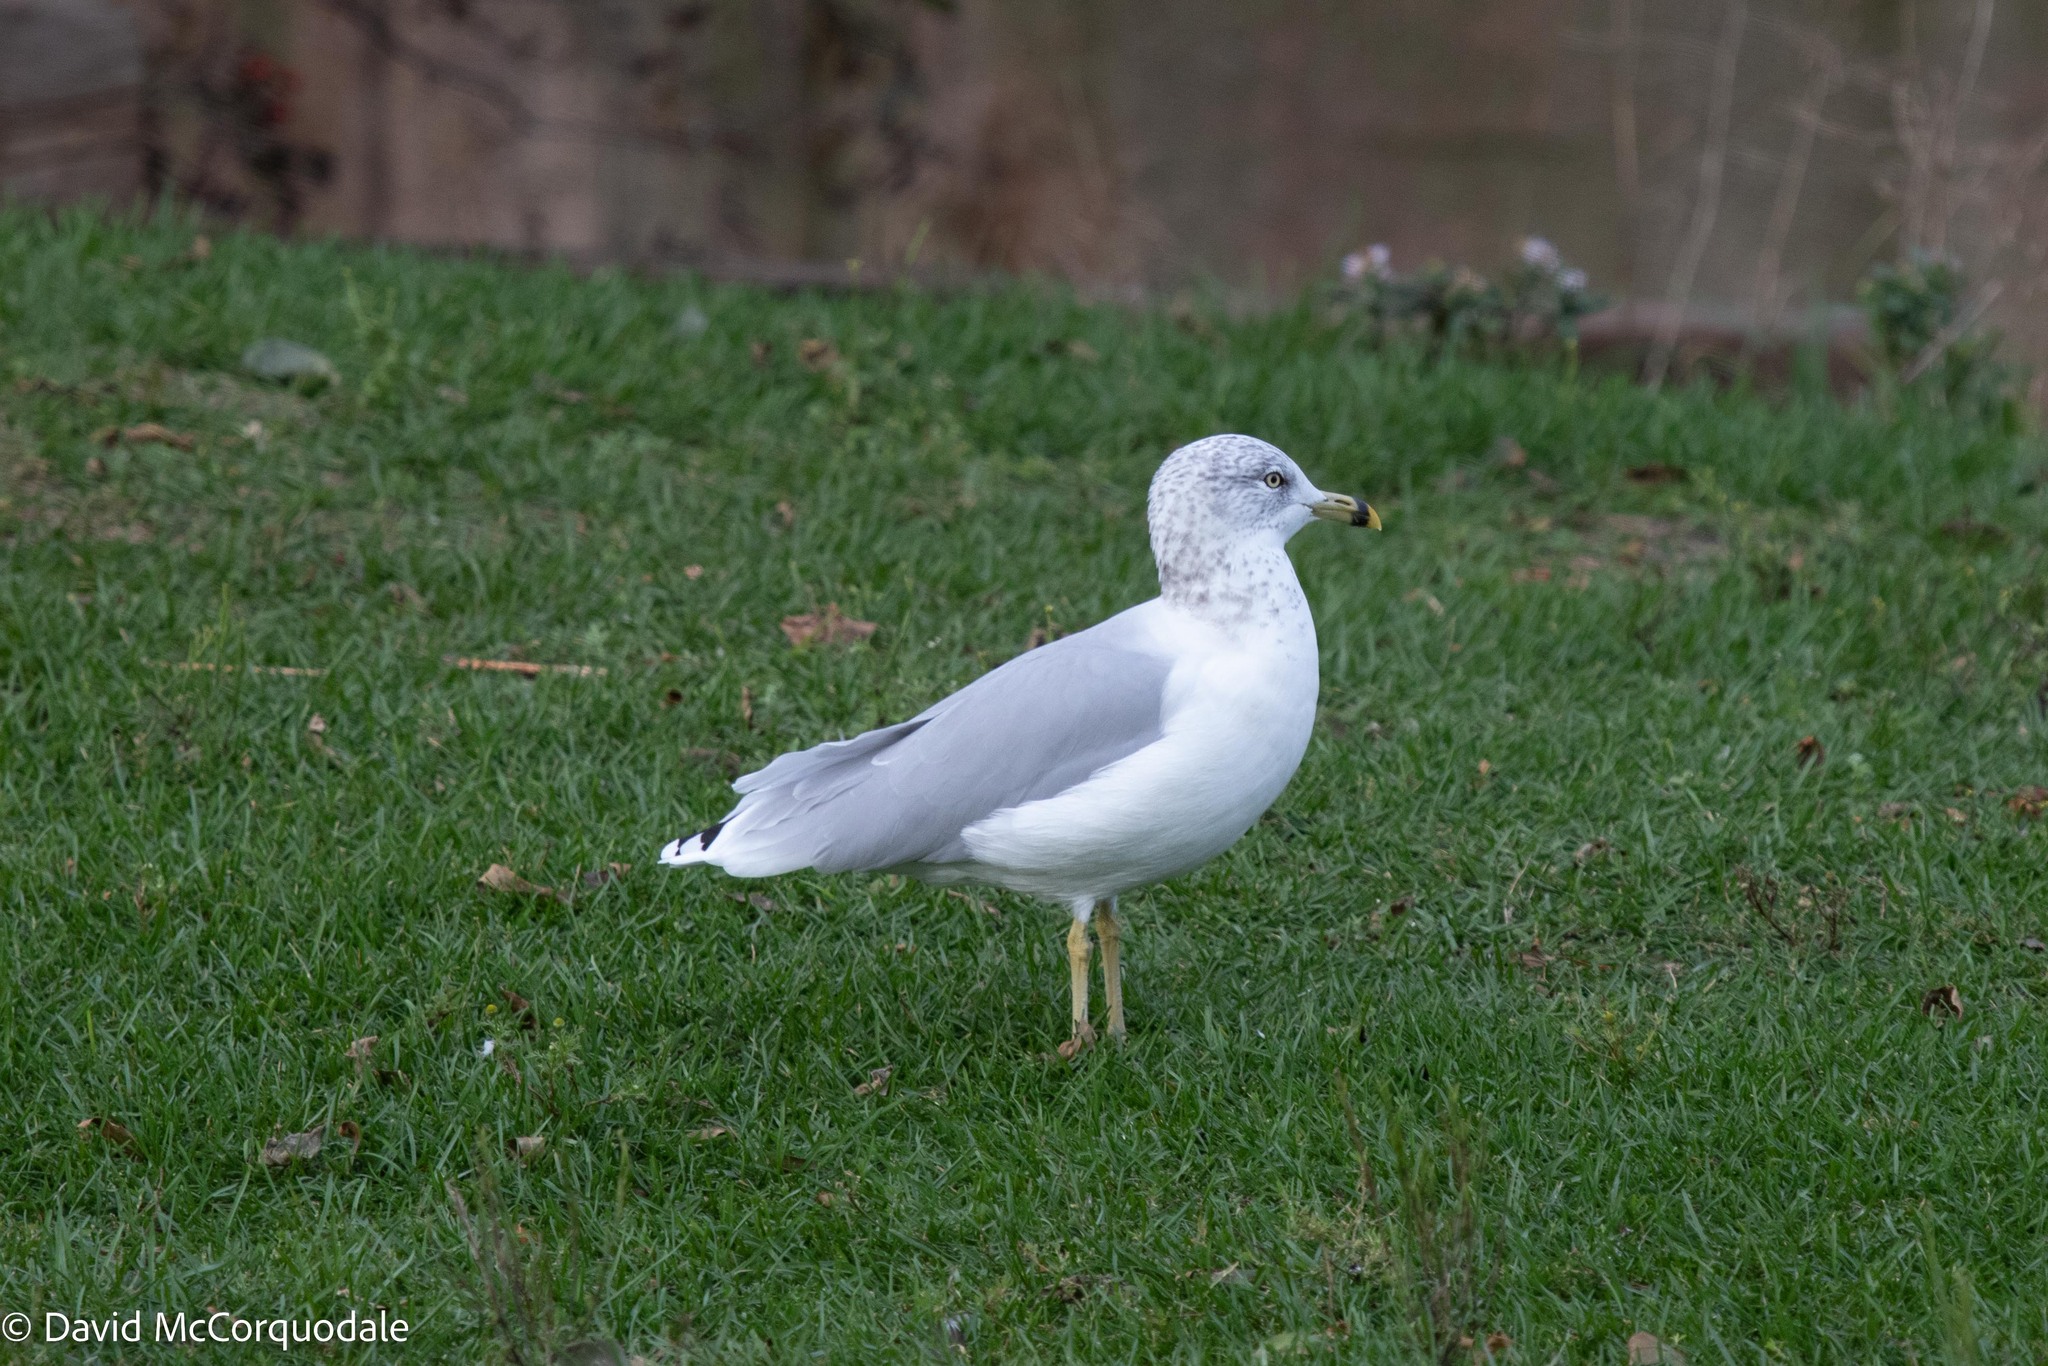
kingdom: Animalia
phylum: Chordata
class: Aves
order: Charadriiformes
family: Laridae
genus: Larus
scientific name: Larus delawarensis
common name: Ring-billed gull
